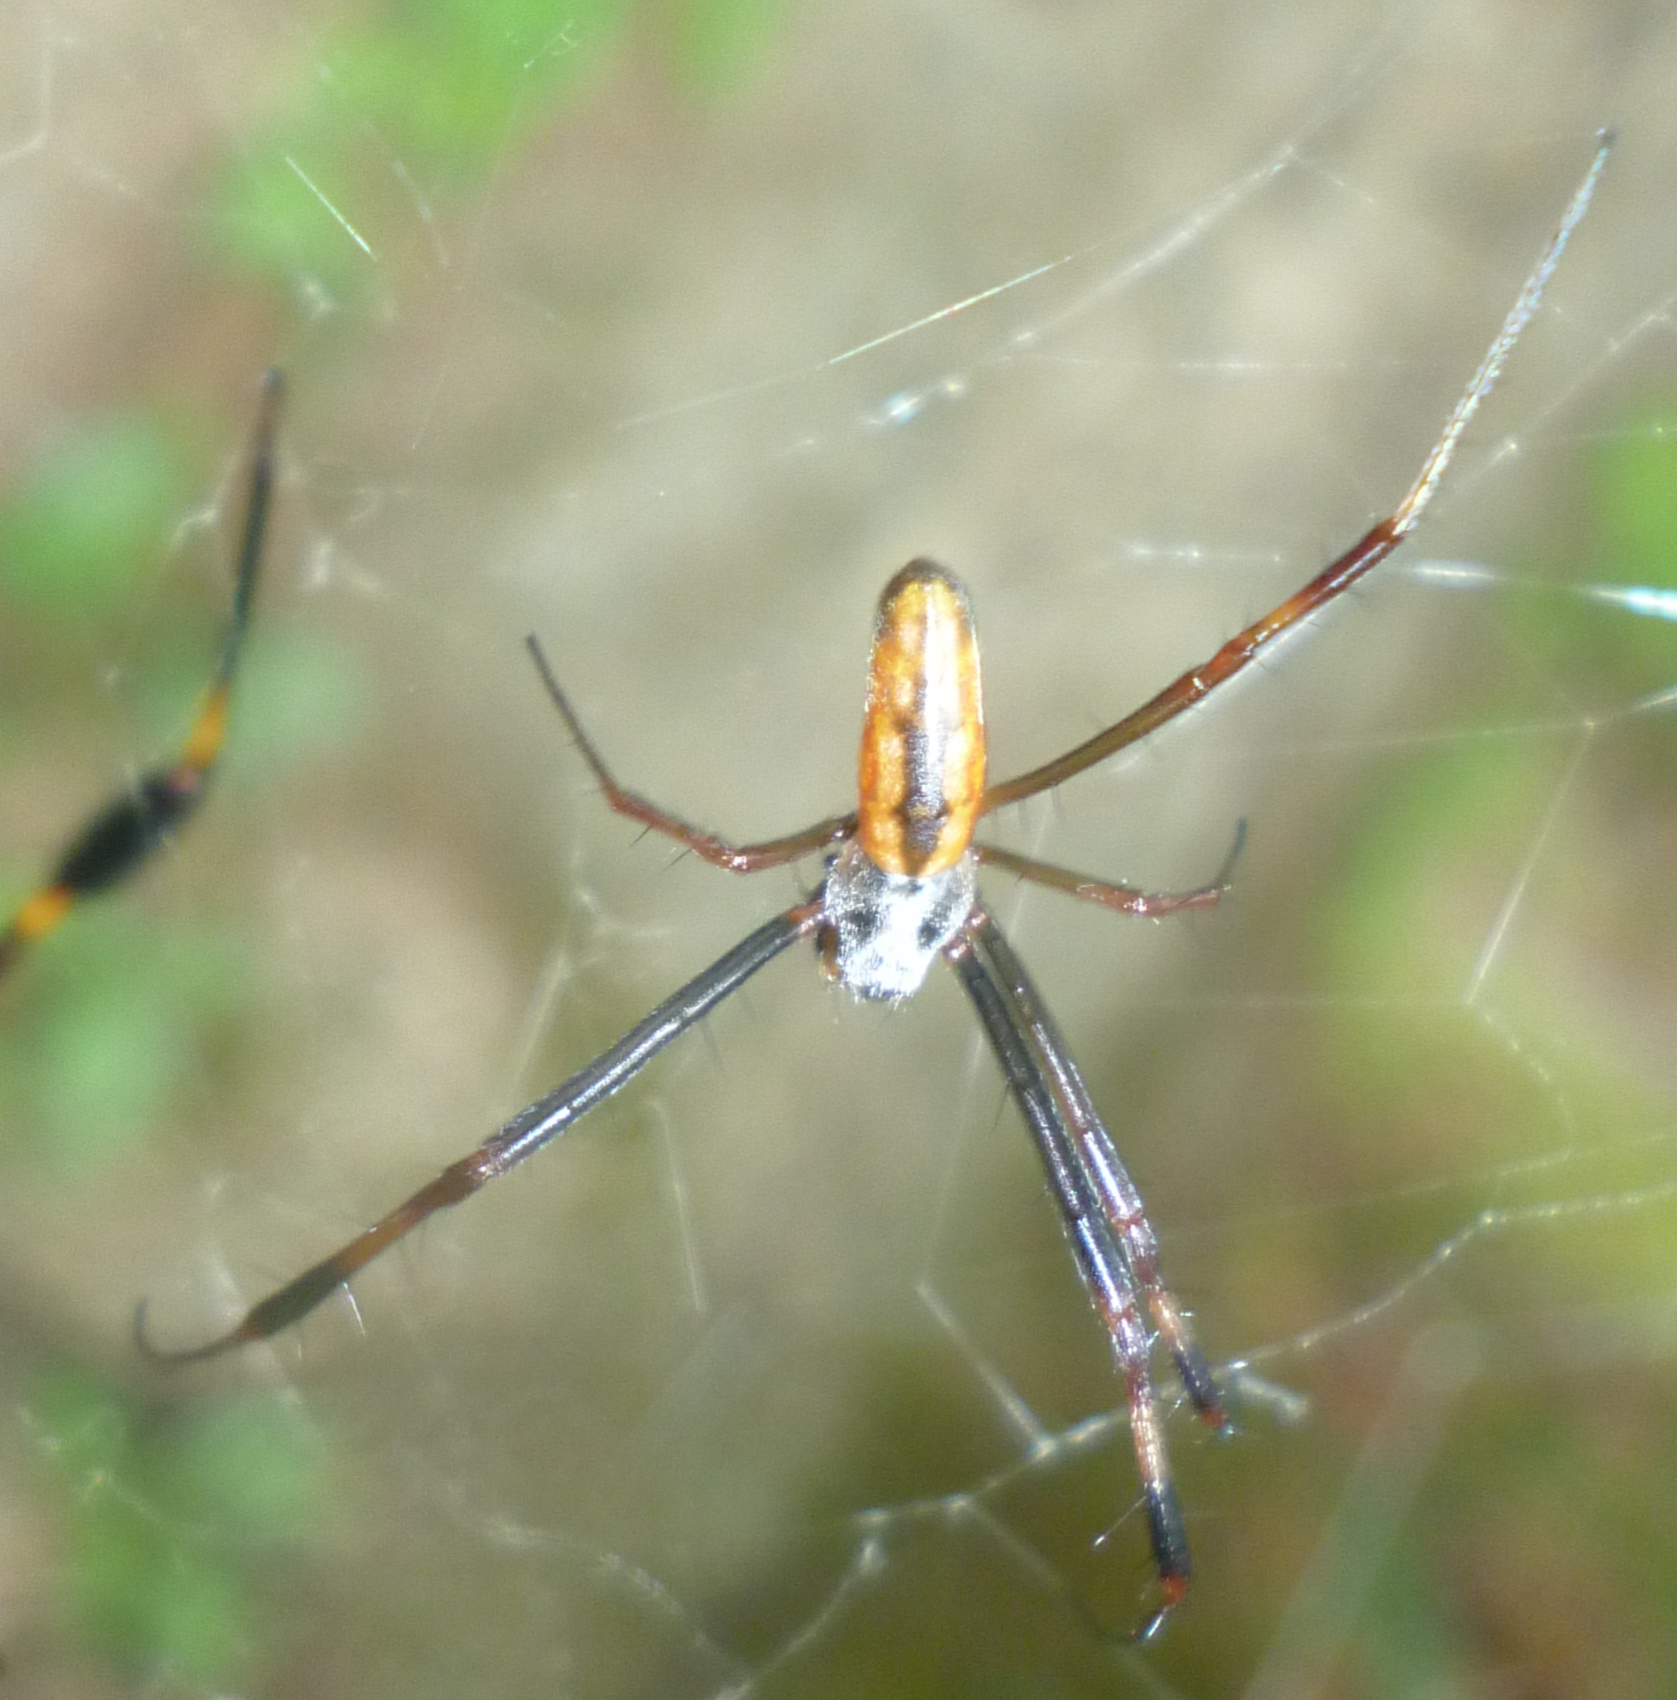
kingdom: Animalia
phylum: Arthropoda
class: Arachnida
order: Araneae
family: Araneidae
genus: Trichonephila
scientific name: Trichonephila clavipes
